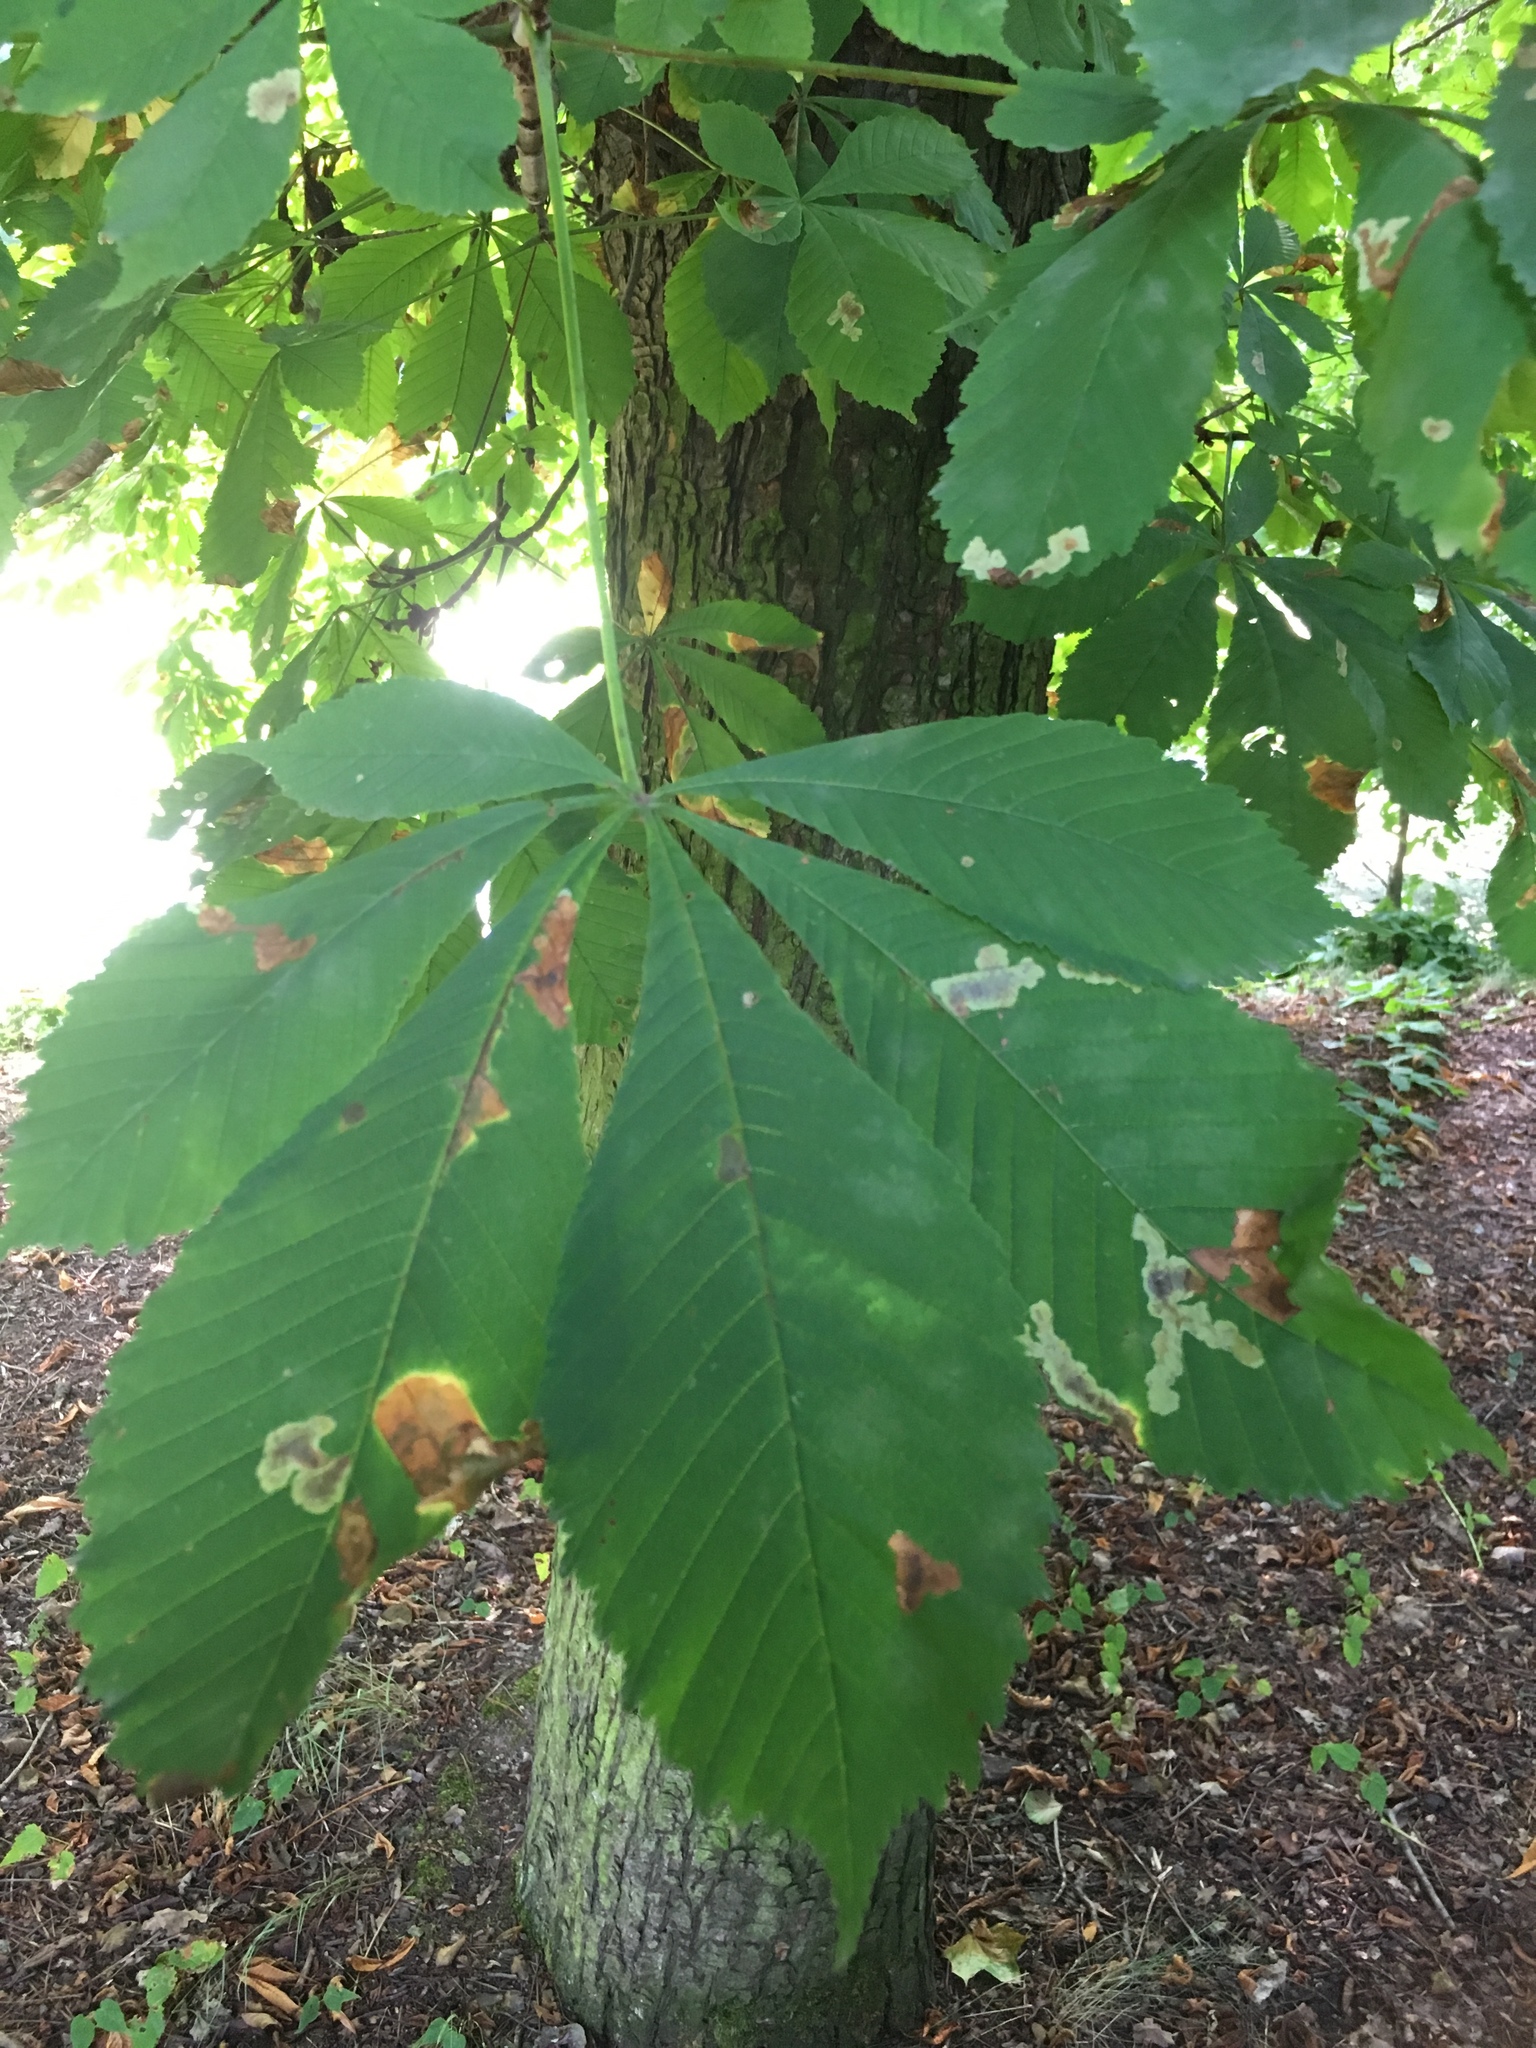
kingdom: Plantae
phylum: Tracheophyta
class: Magnoliopsida
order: Sapindales
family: Sapindaceae
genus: Aesculus
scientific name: Aesculus hippocastanum
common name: Horse-chestnut
